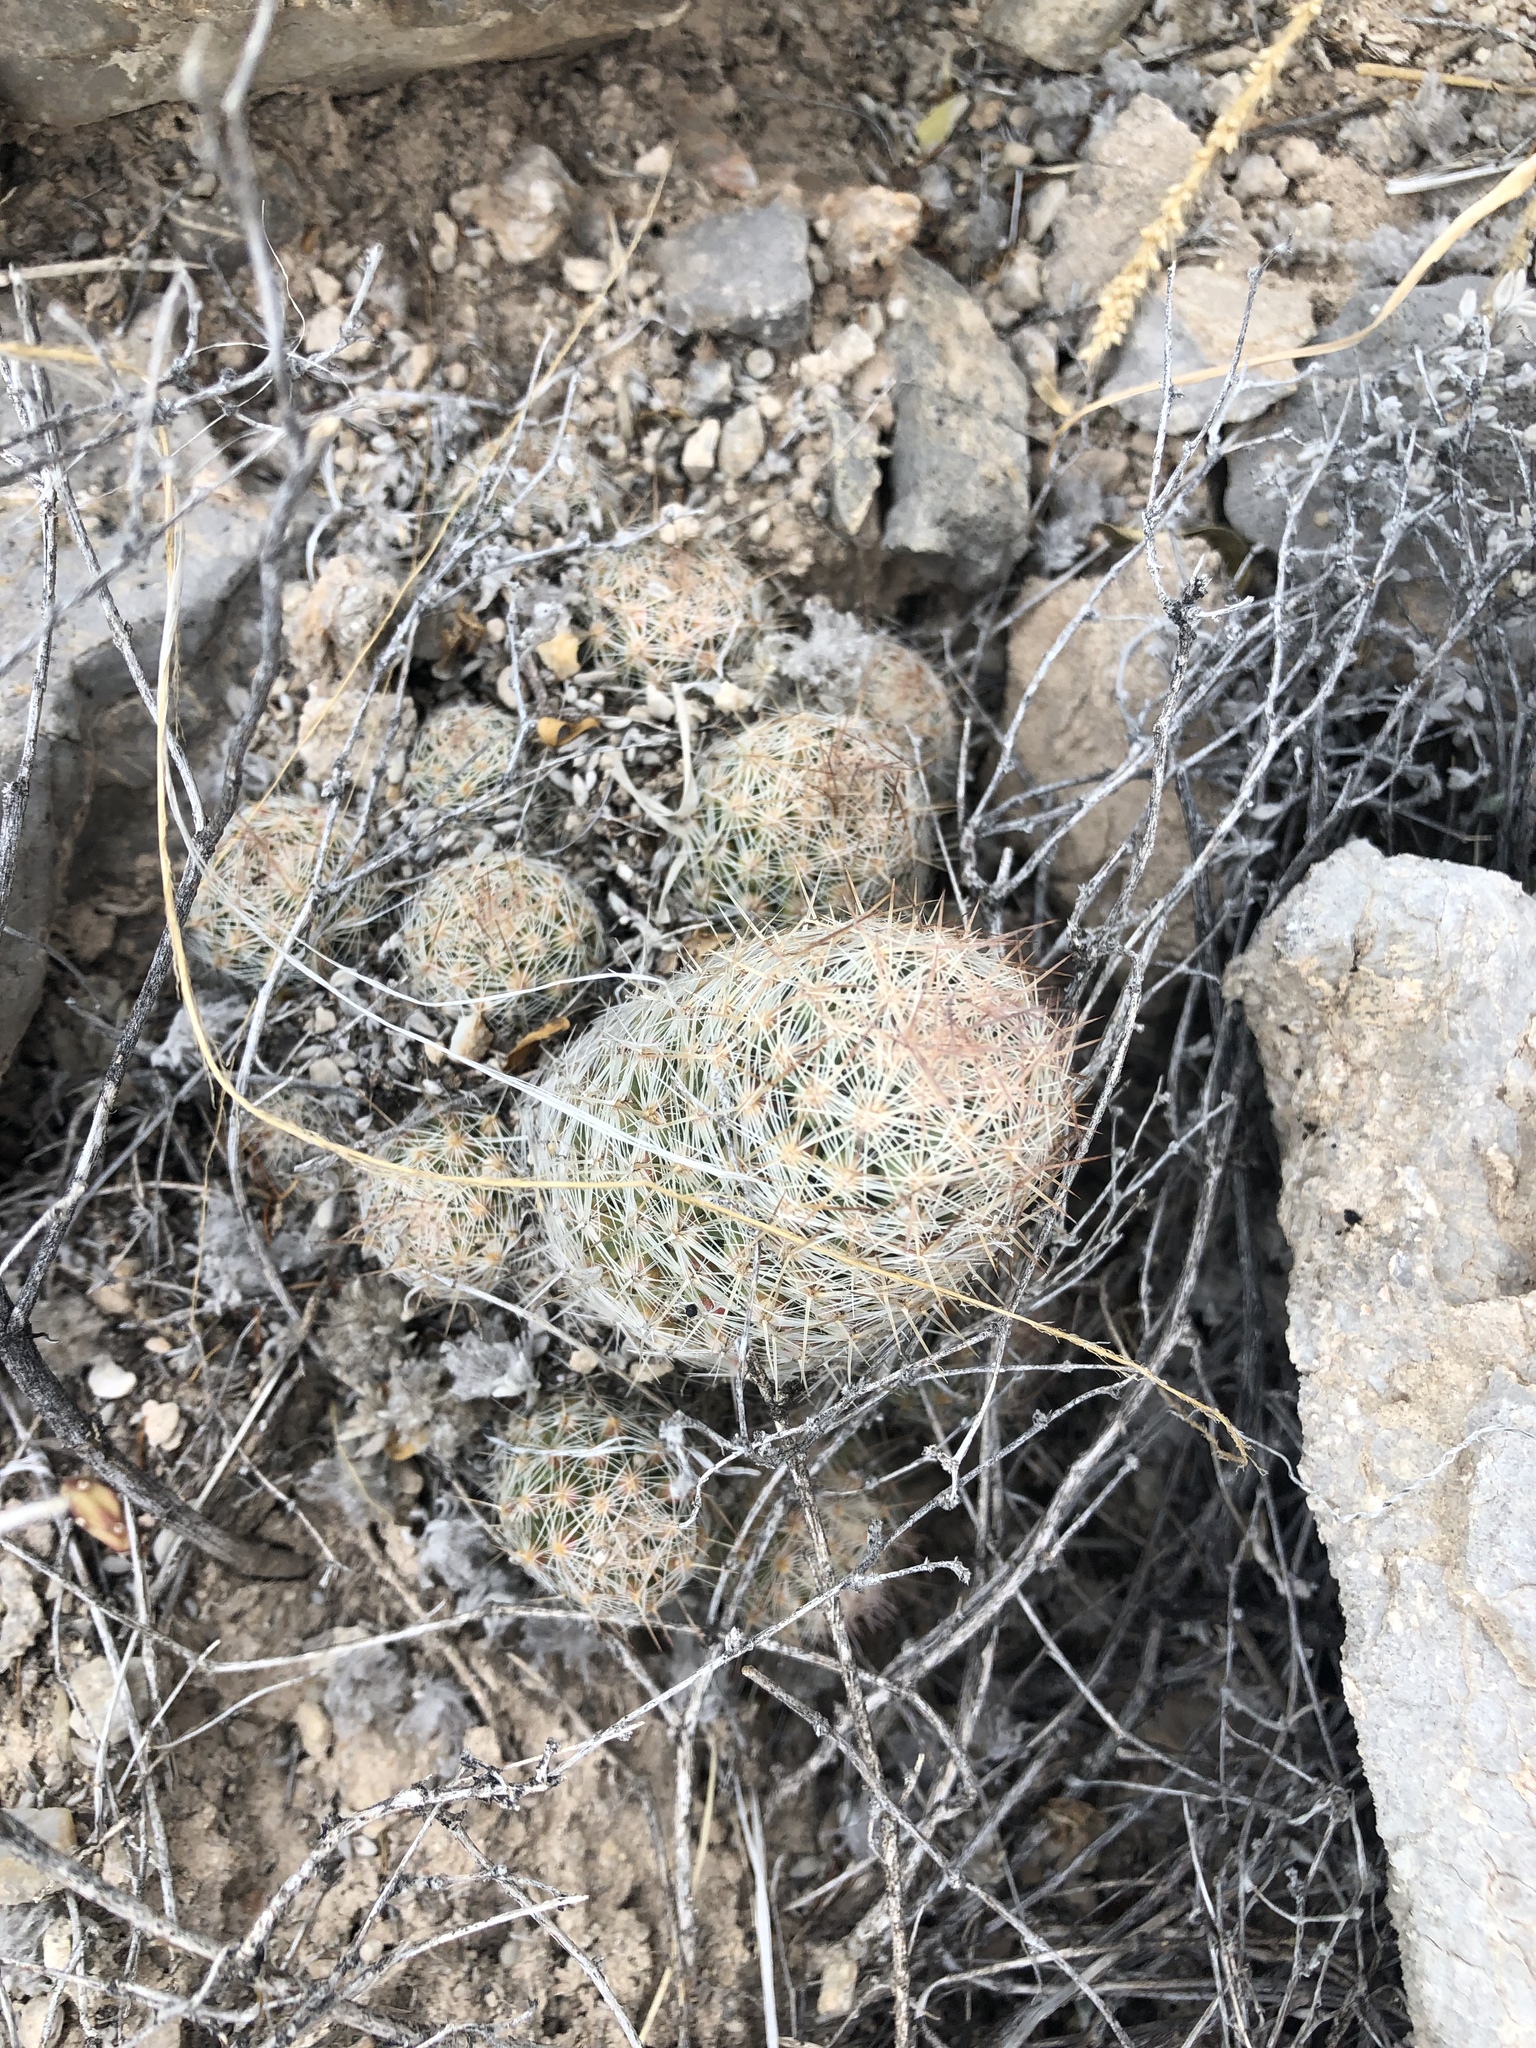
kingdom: Plantae
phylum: Tracheophyta
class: Magnoliopsida
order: Caryophyllales
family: Cactaceae
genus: Pelecyphora
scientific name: Pelecyphora tuberculosa
